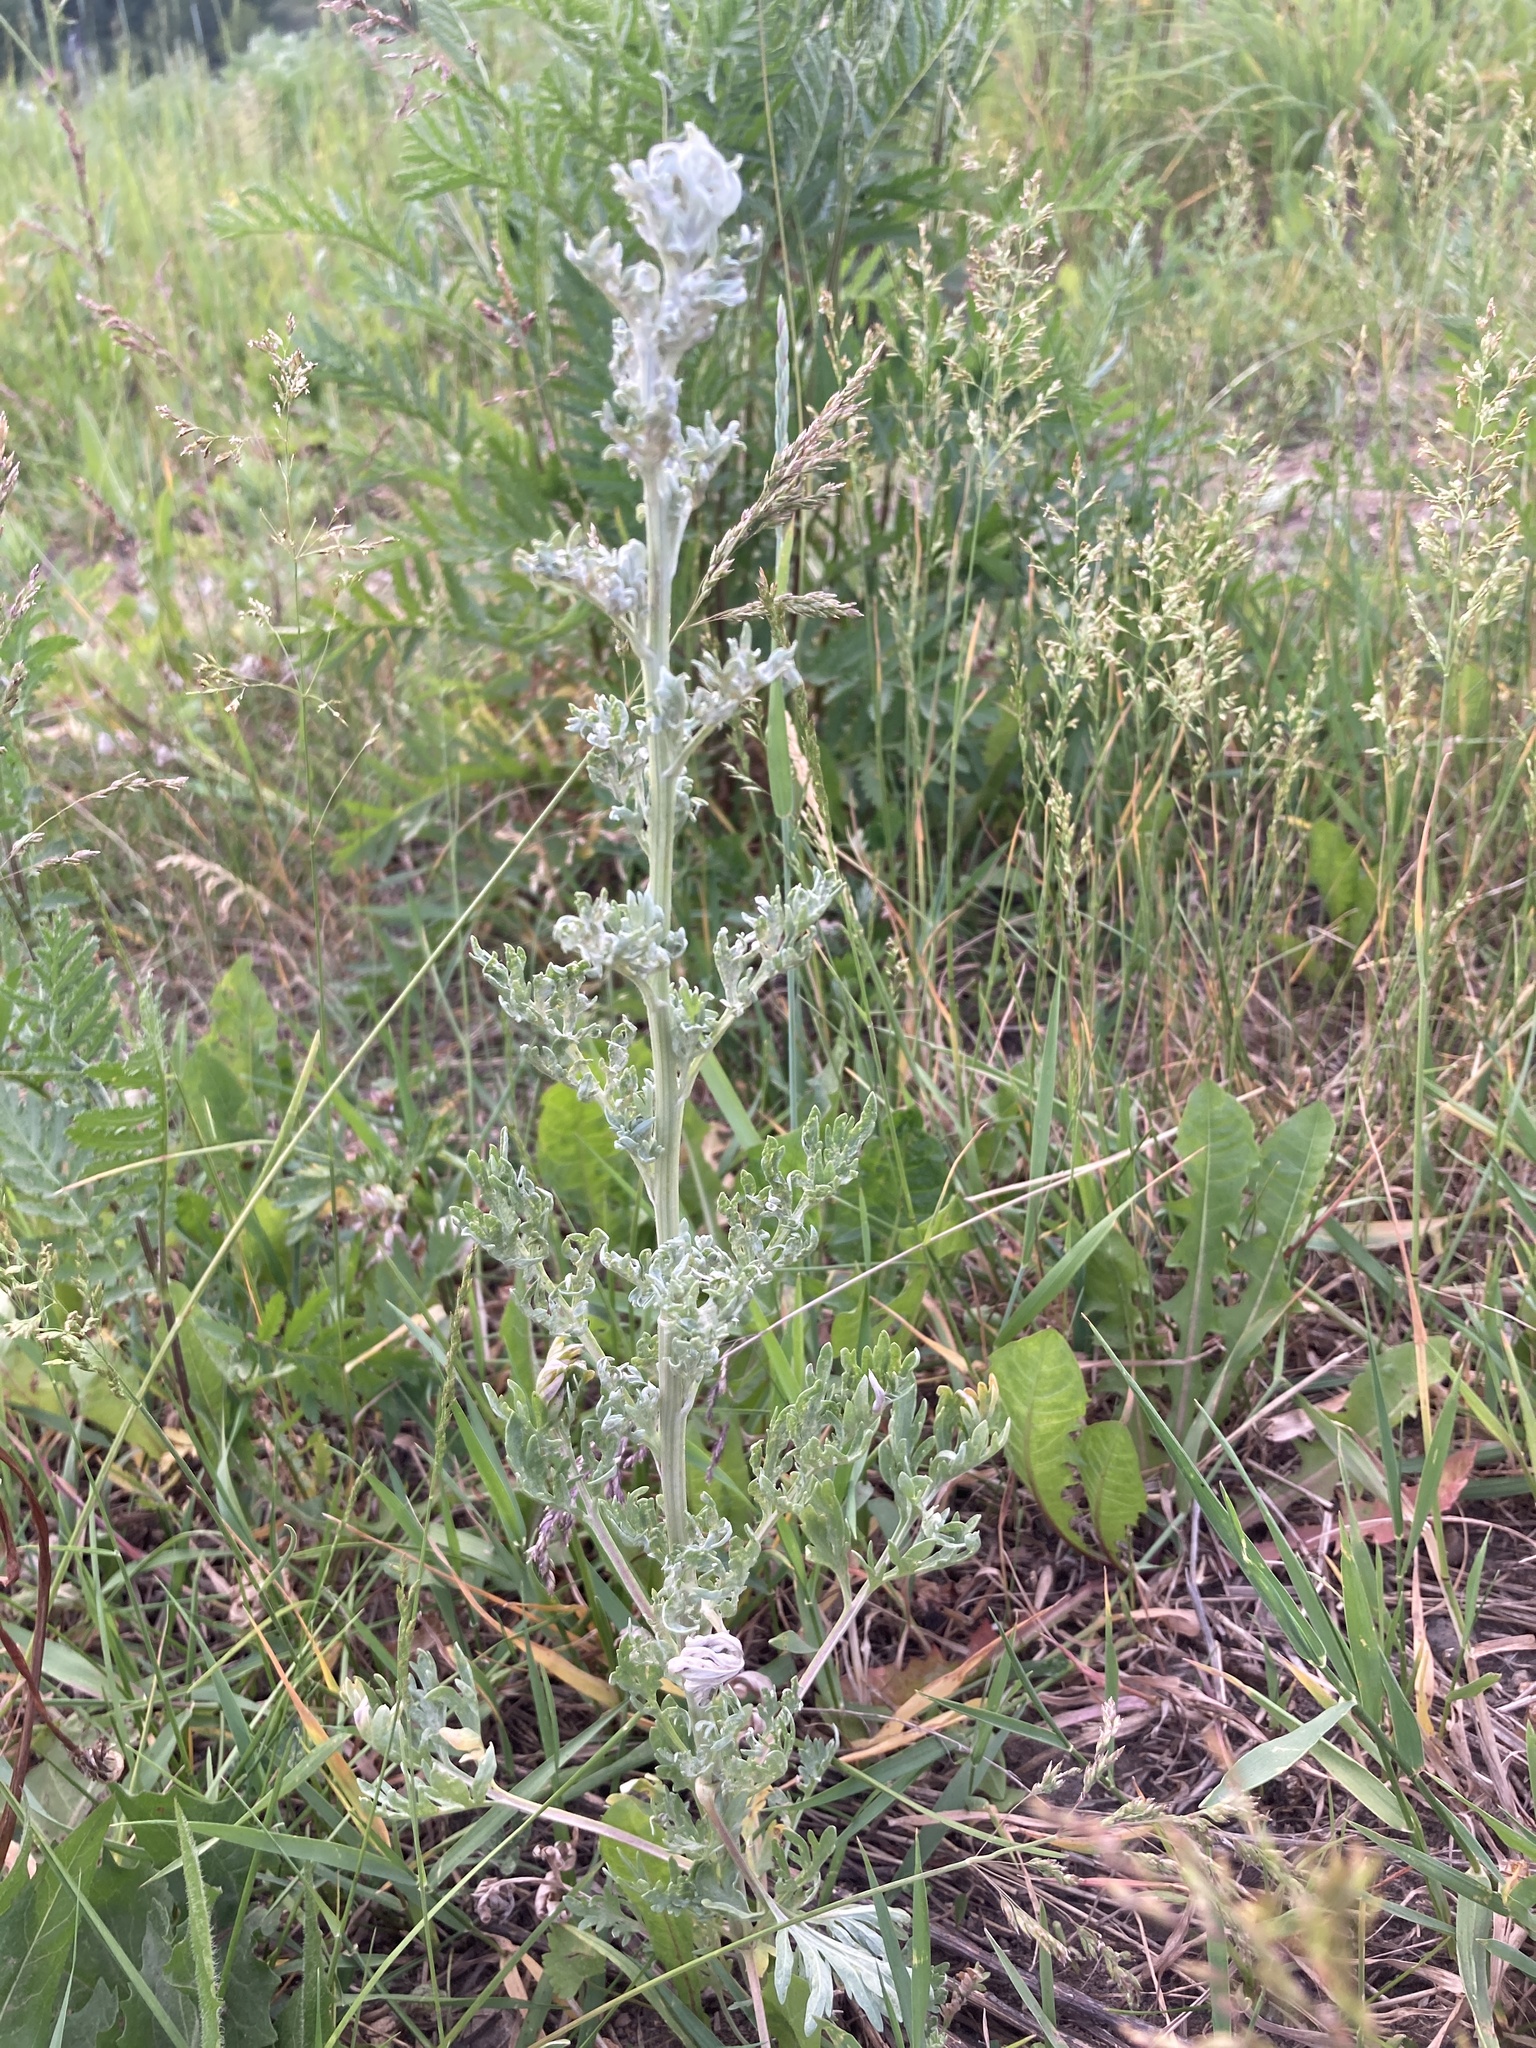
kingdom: Plantae
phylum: Tracheophyta
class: Magnoliopsida
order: Asterales
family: Asteraceae
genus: Artemisia
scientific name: Artemisia absinthium
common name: Wormwood
